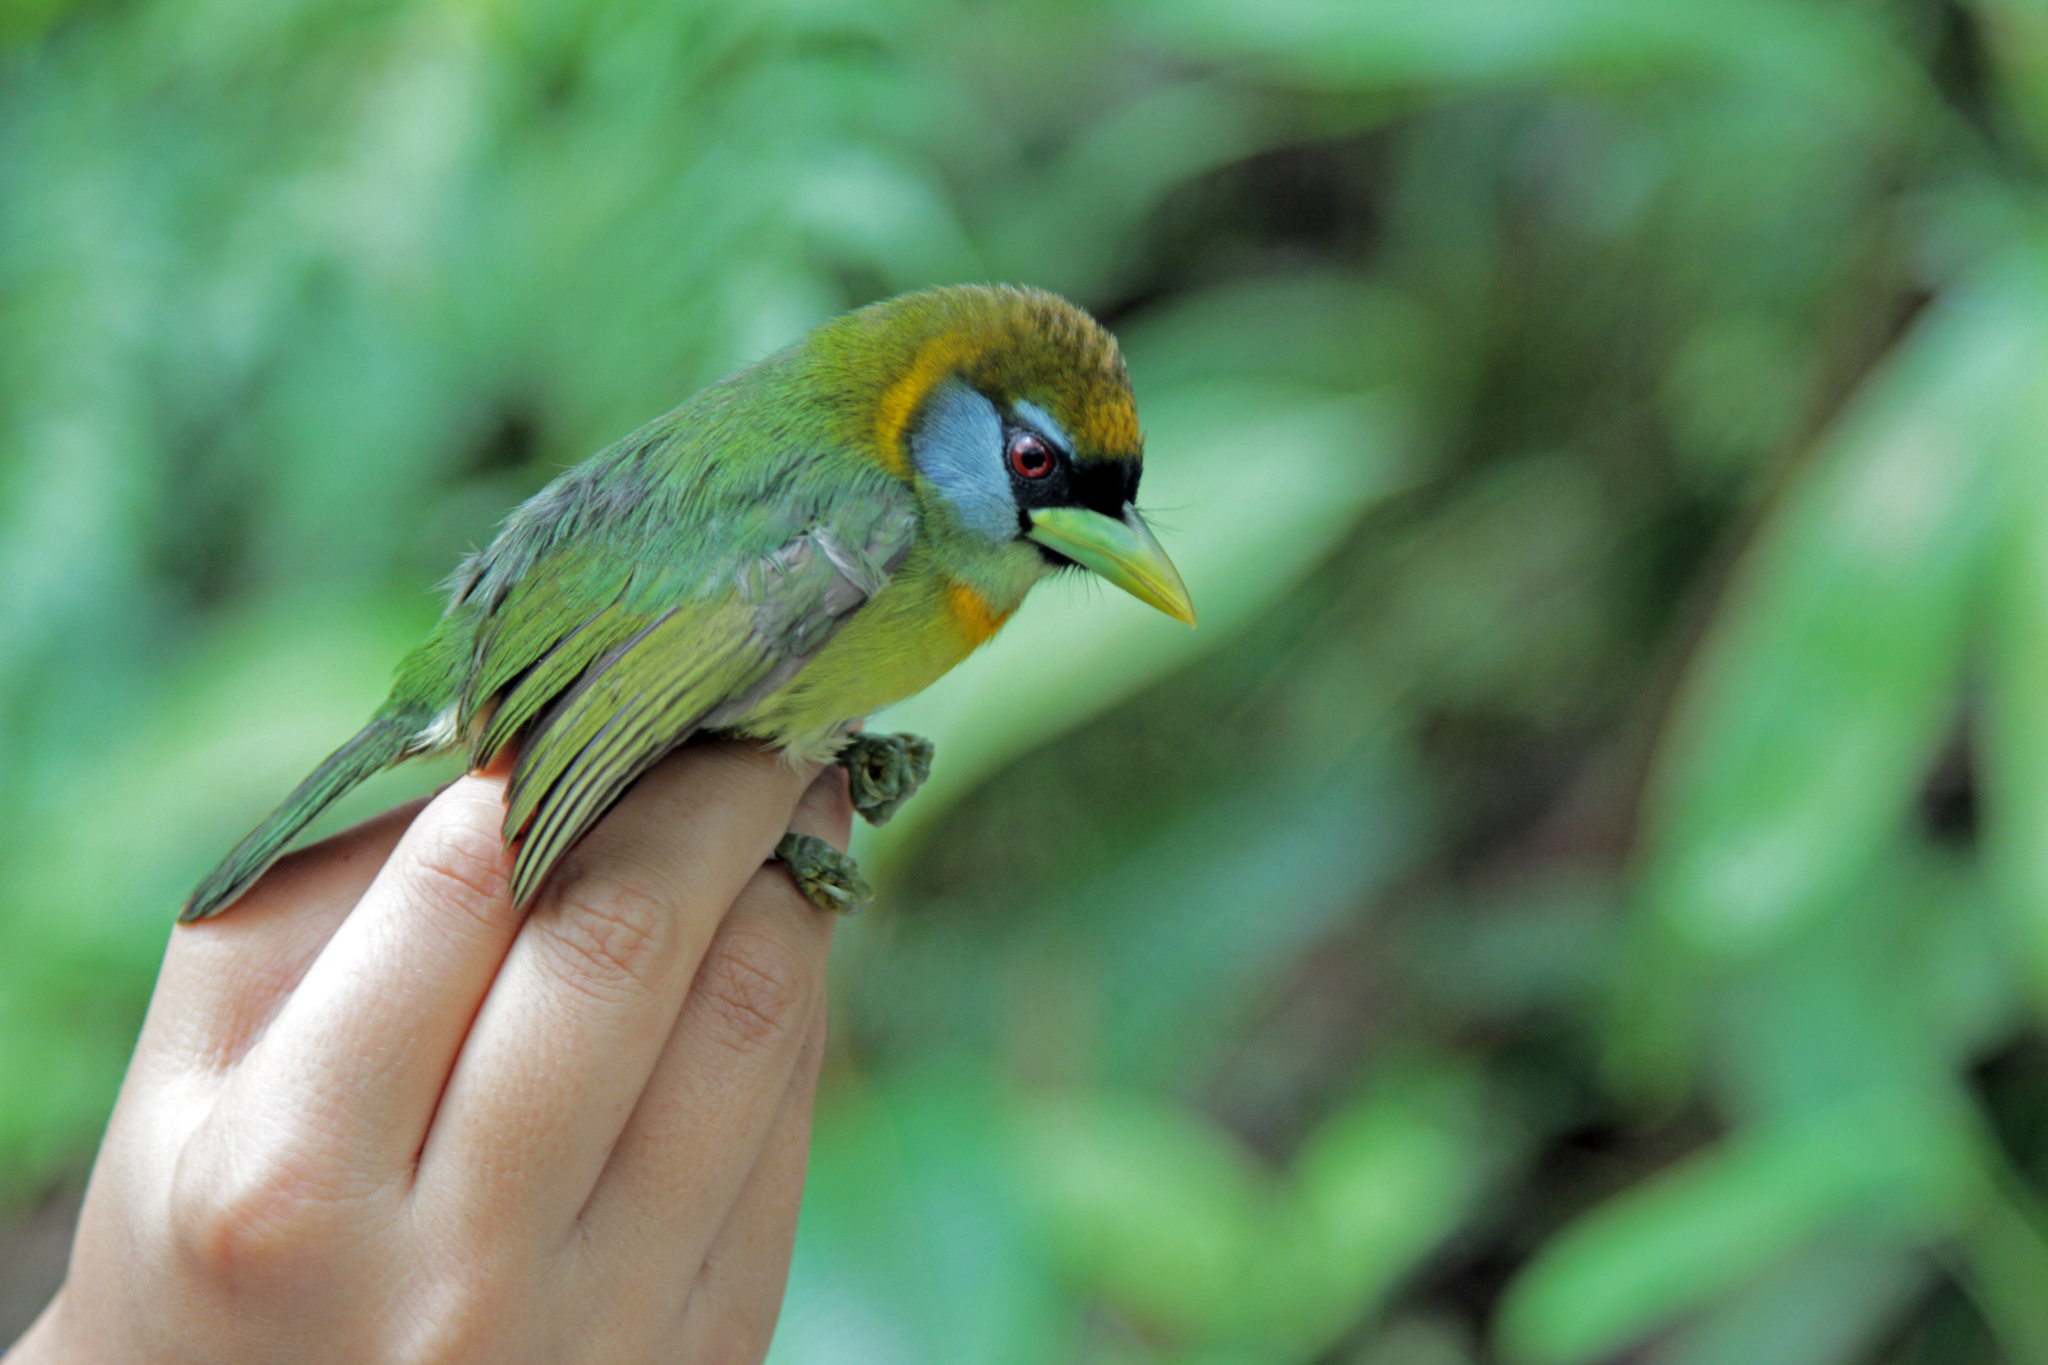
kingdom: Animalia
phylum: Chordata
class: Aves
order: Piciformes
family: Capitonidae
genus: Eubucco
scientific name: Eubucco bourcierii
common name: Red-headed barbet
